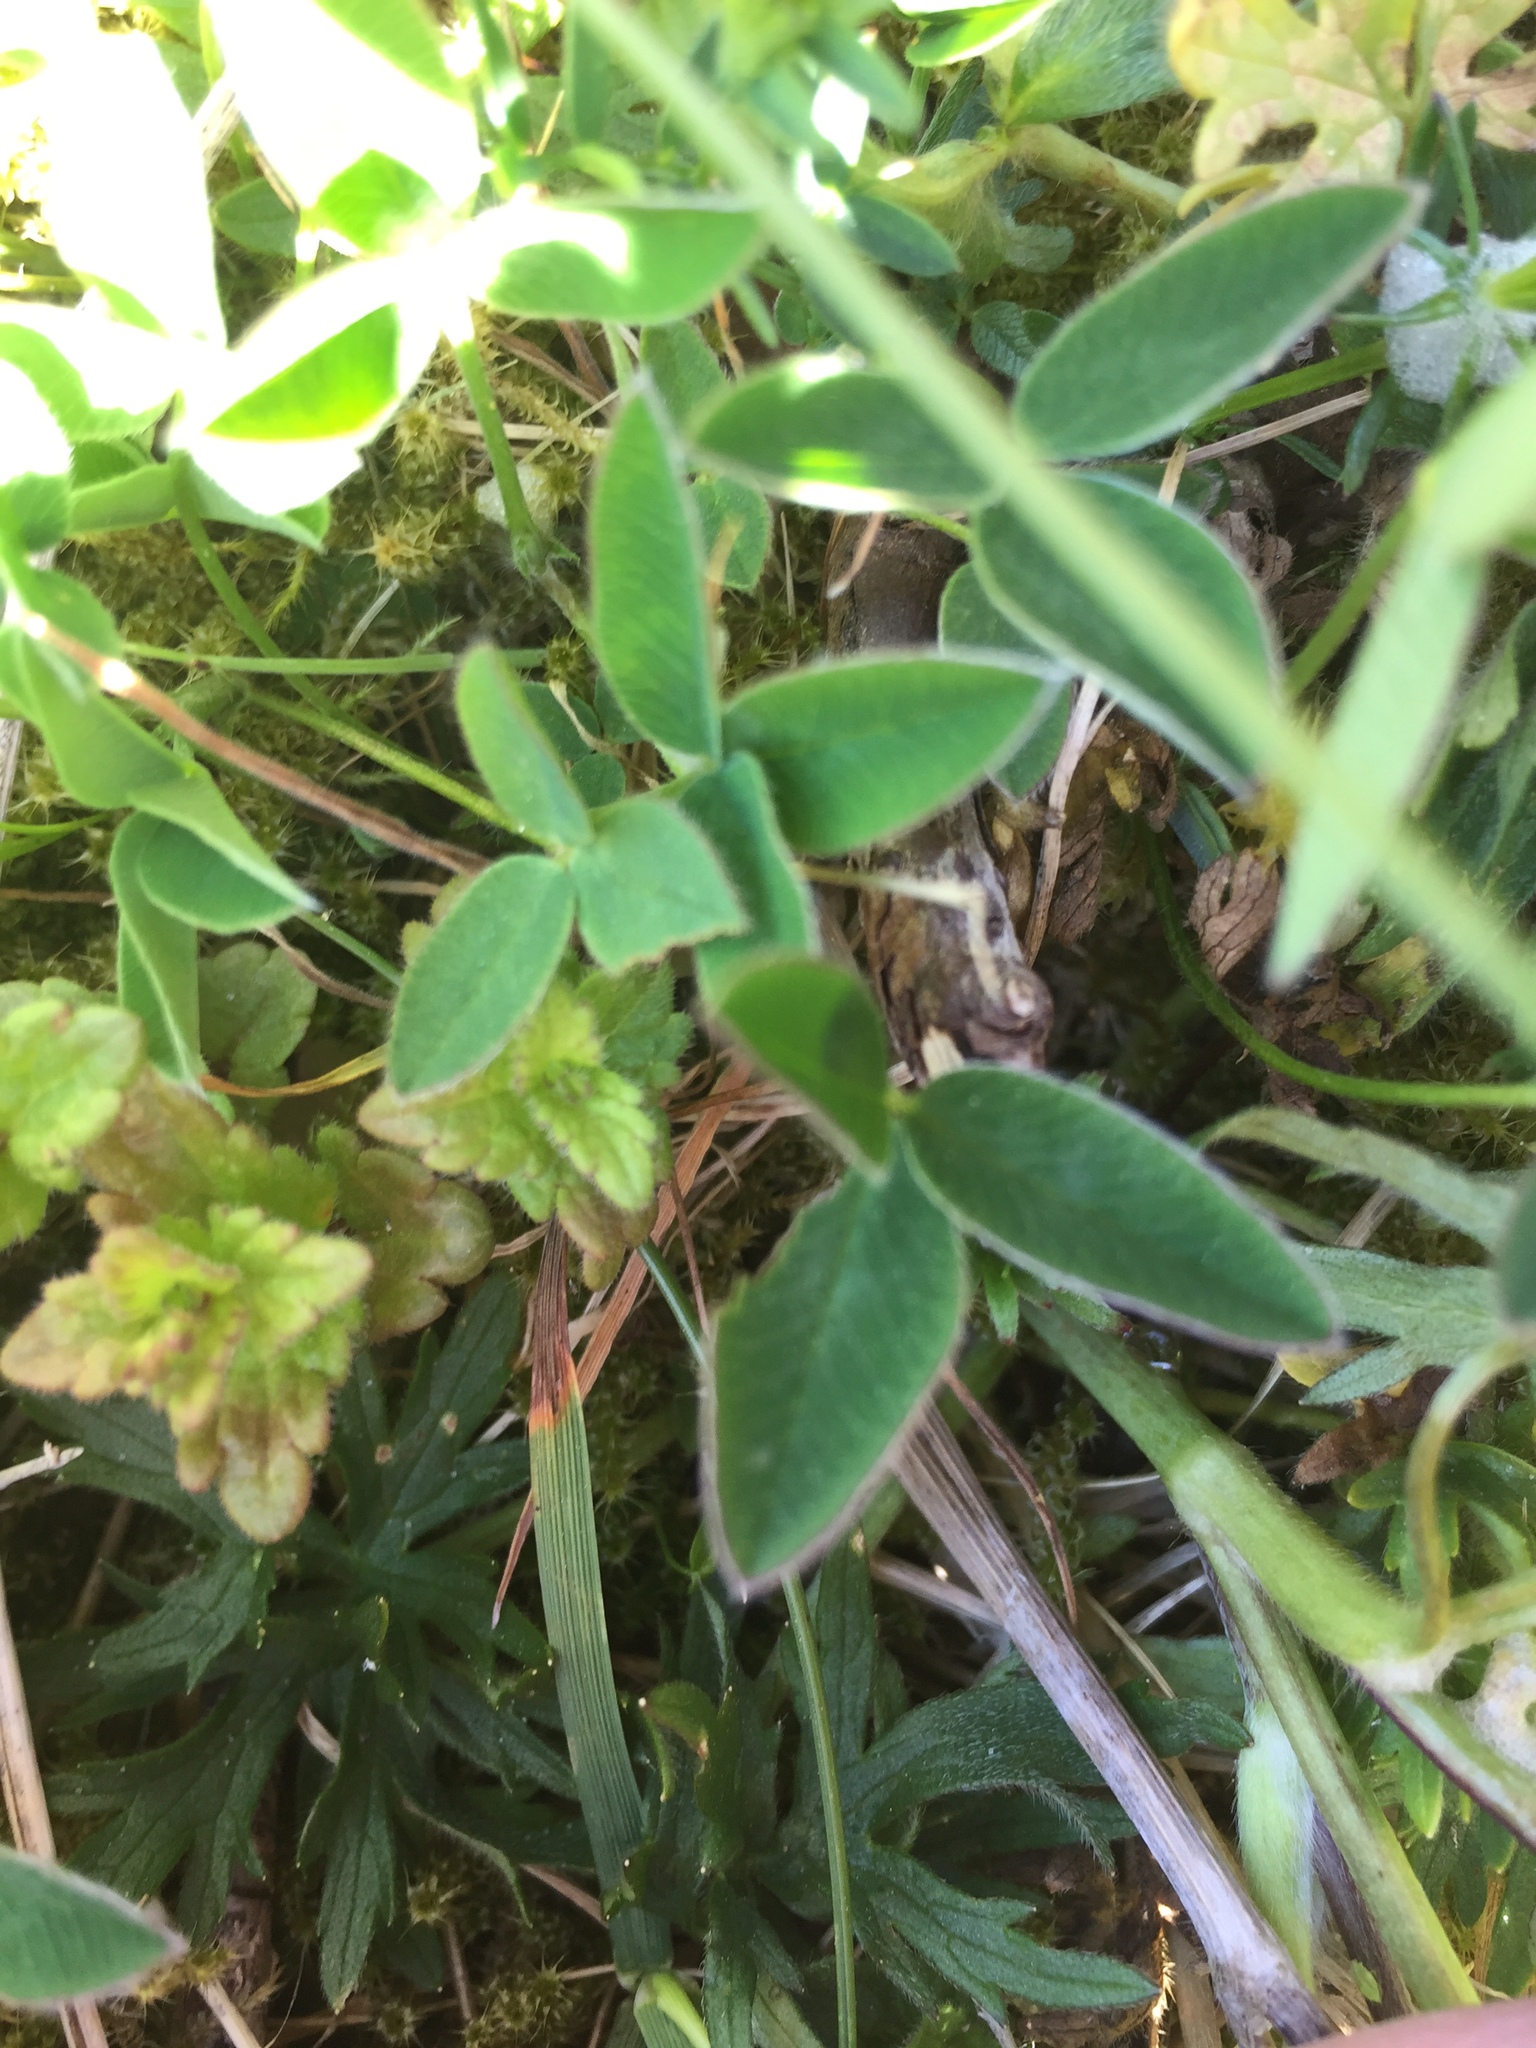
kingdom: Plantae
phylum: Tracheophyta
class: Magnoliopsida
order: Fabales
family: Fabaceae
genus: Trifolium
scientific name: Trifolium medium
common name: Zigzag clover
